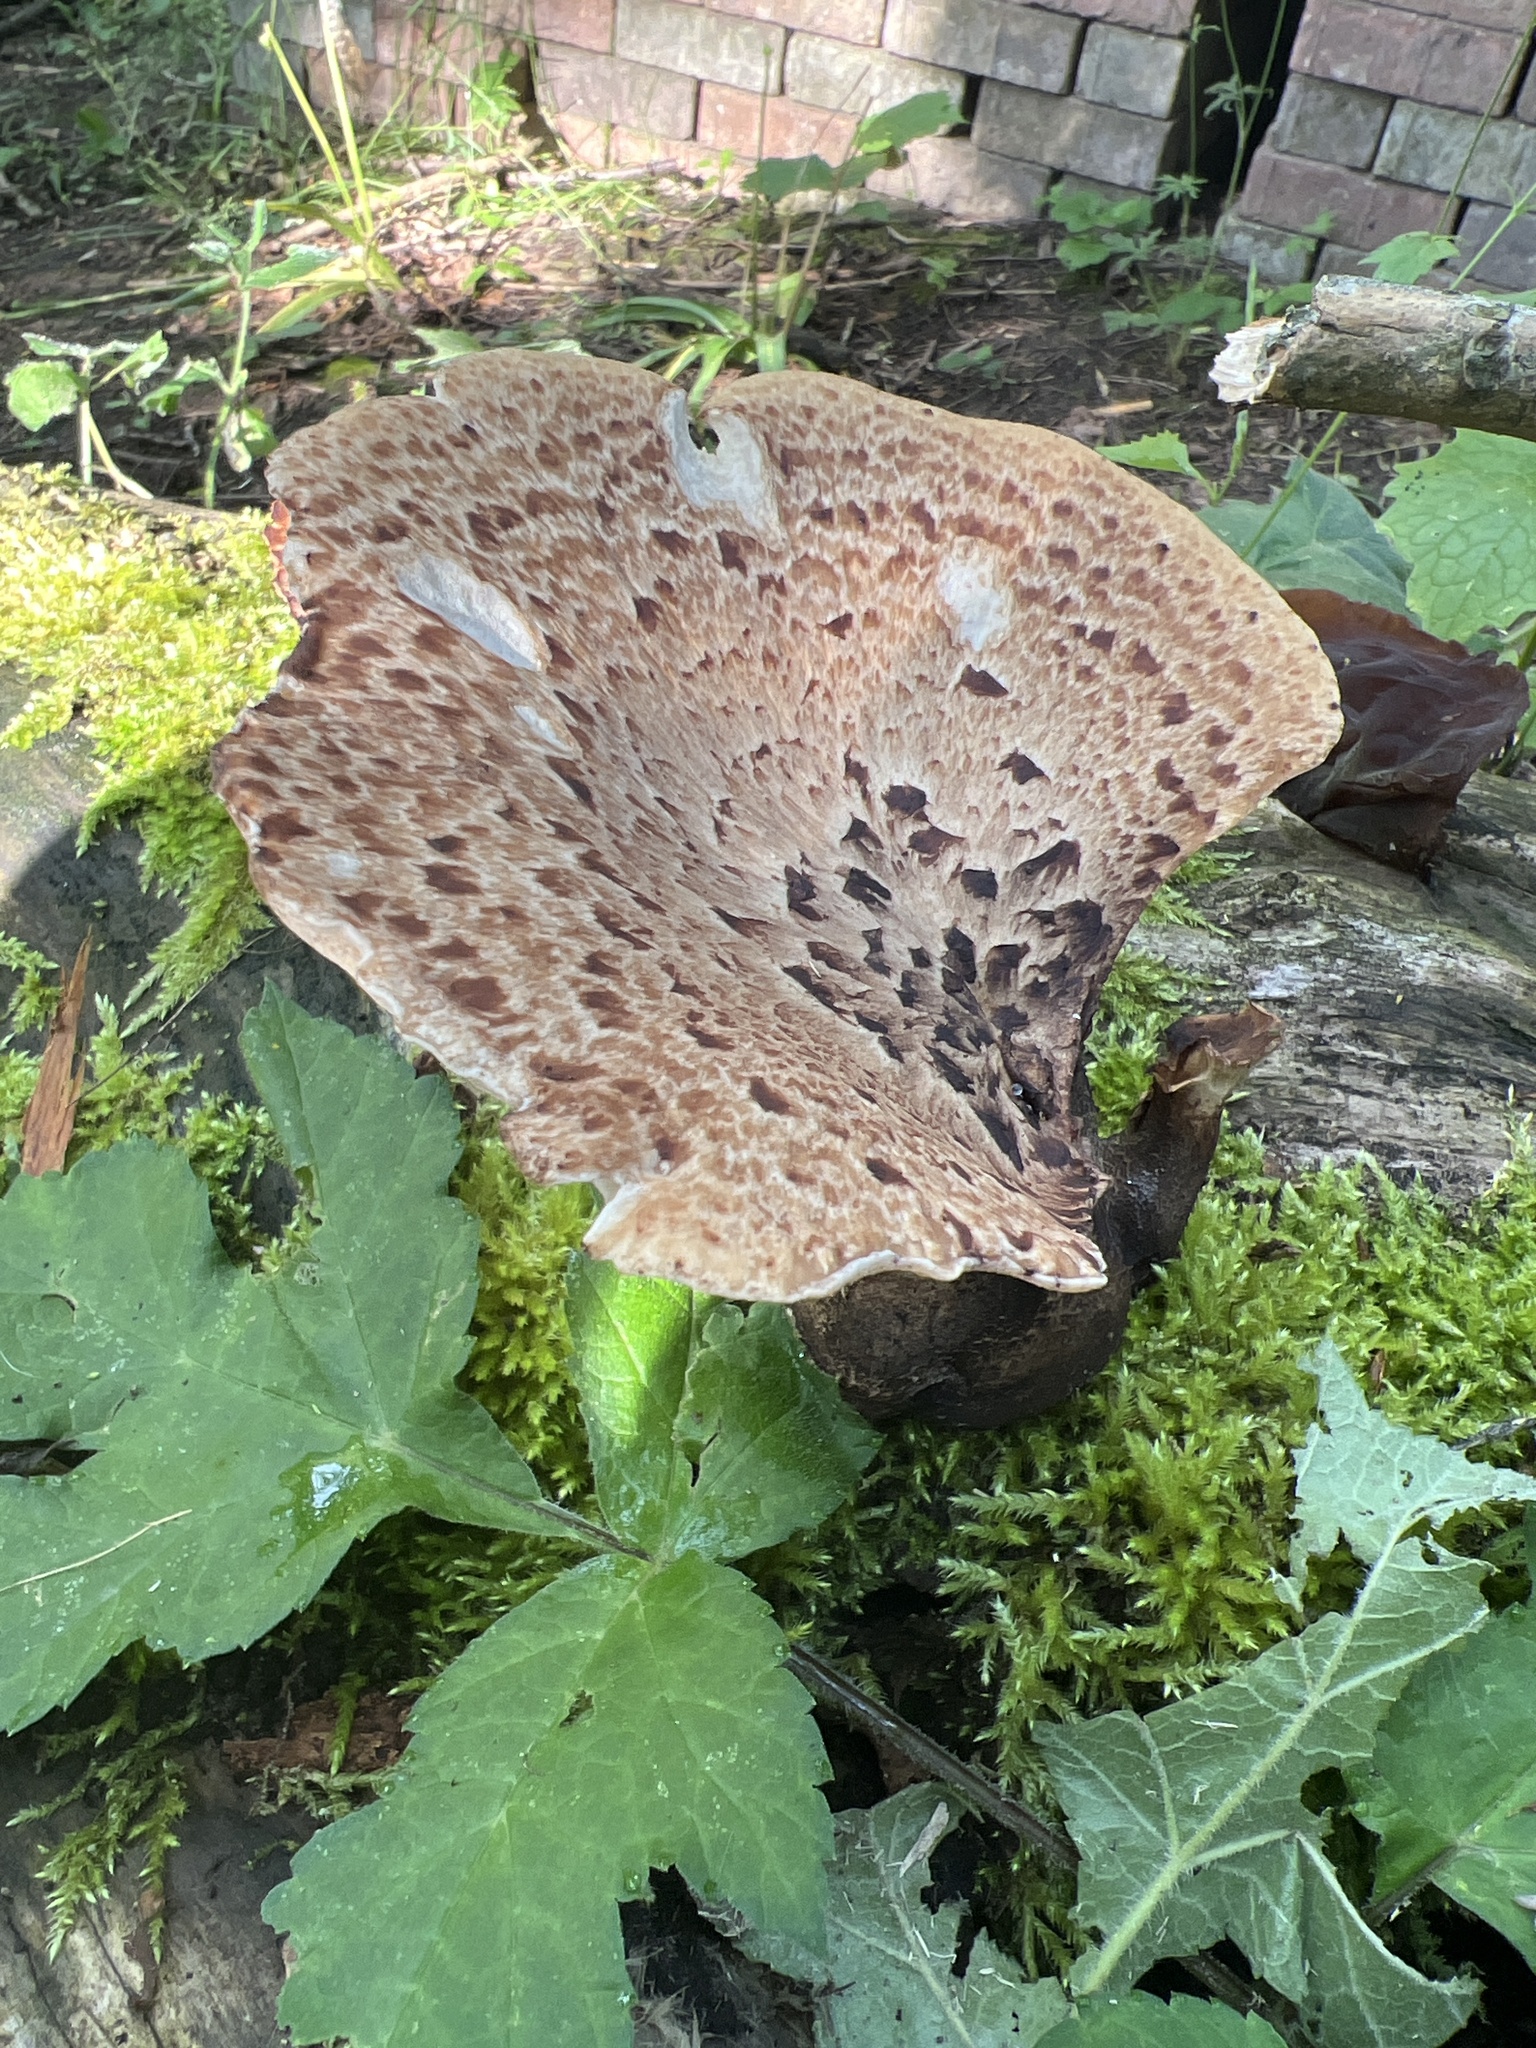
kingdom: Fungi
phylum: Basidiomycota
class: Agaricomycetes
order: Polyporales
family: Polyporaceae
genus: Cerioporus
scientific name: Cerioporus squamosus
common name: Dryad's saddle
